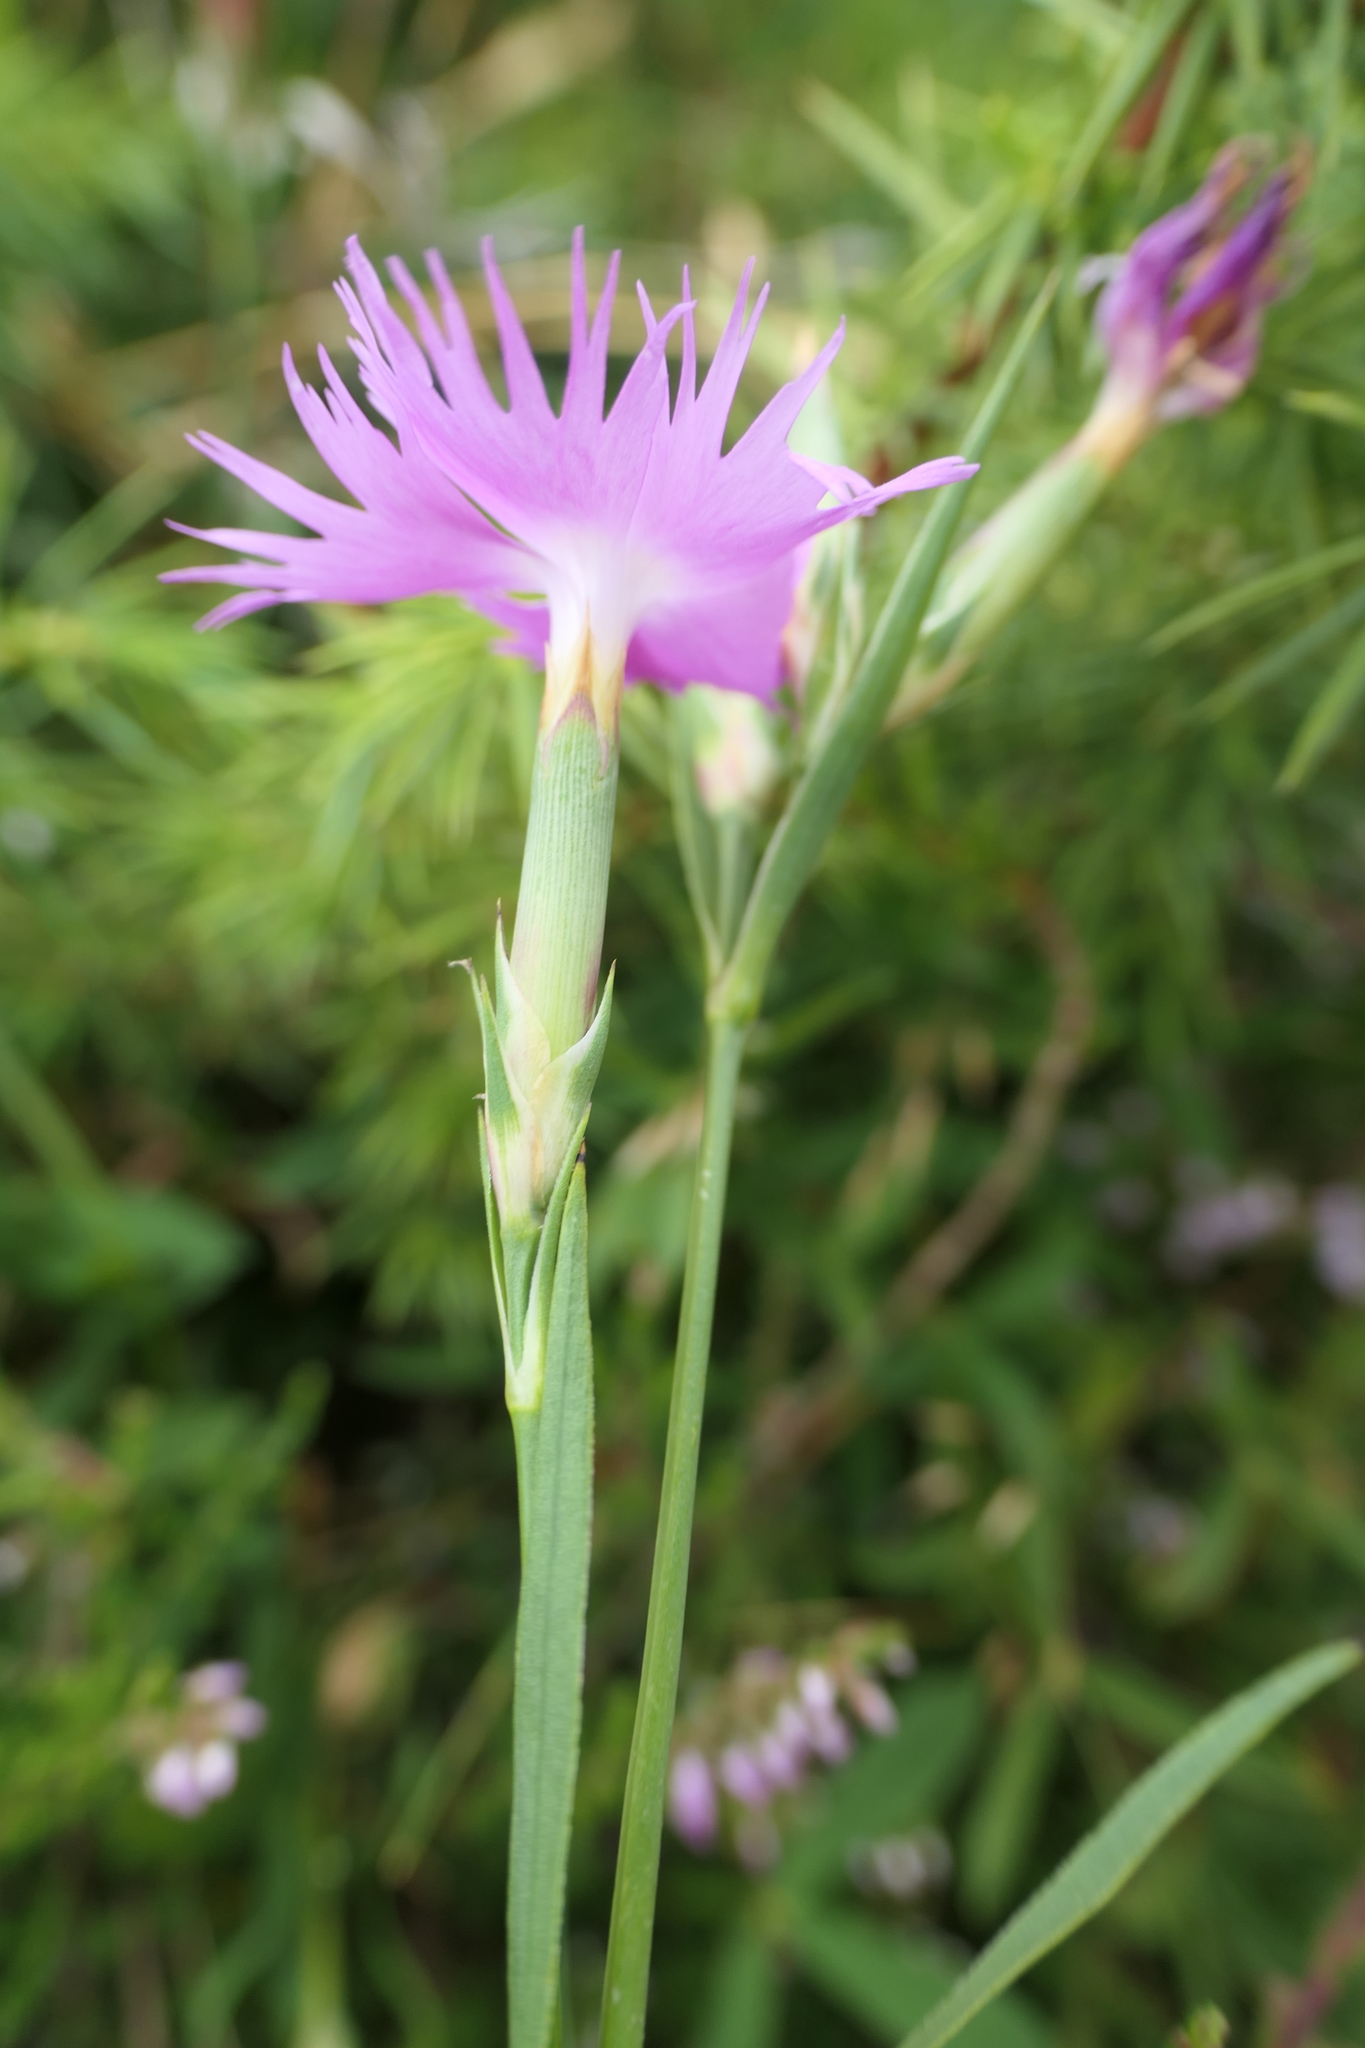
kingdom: Plantae
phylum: Tracheophyta
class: Magnoliopsida
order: Caryophyllales
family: Caryophyllaceae
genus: Dianthus
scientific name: Dianthus hyssopifolius
